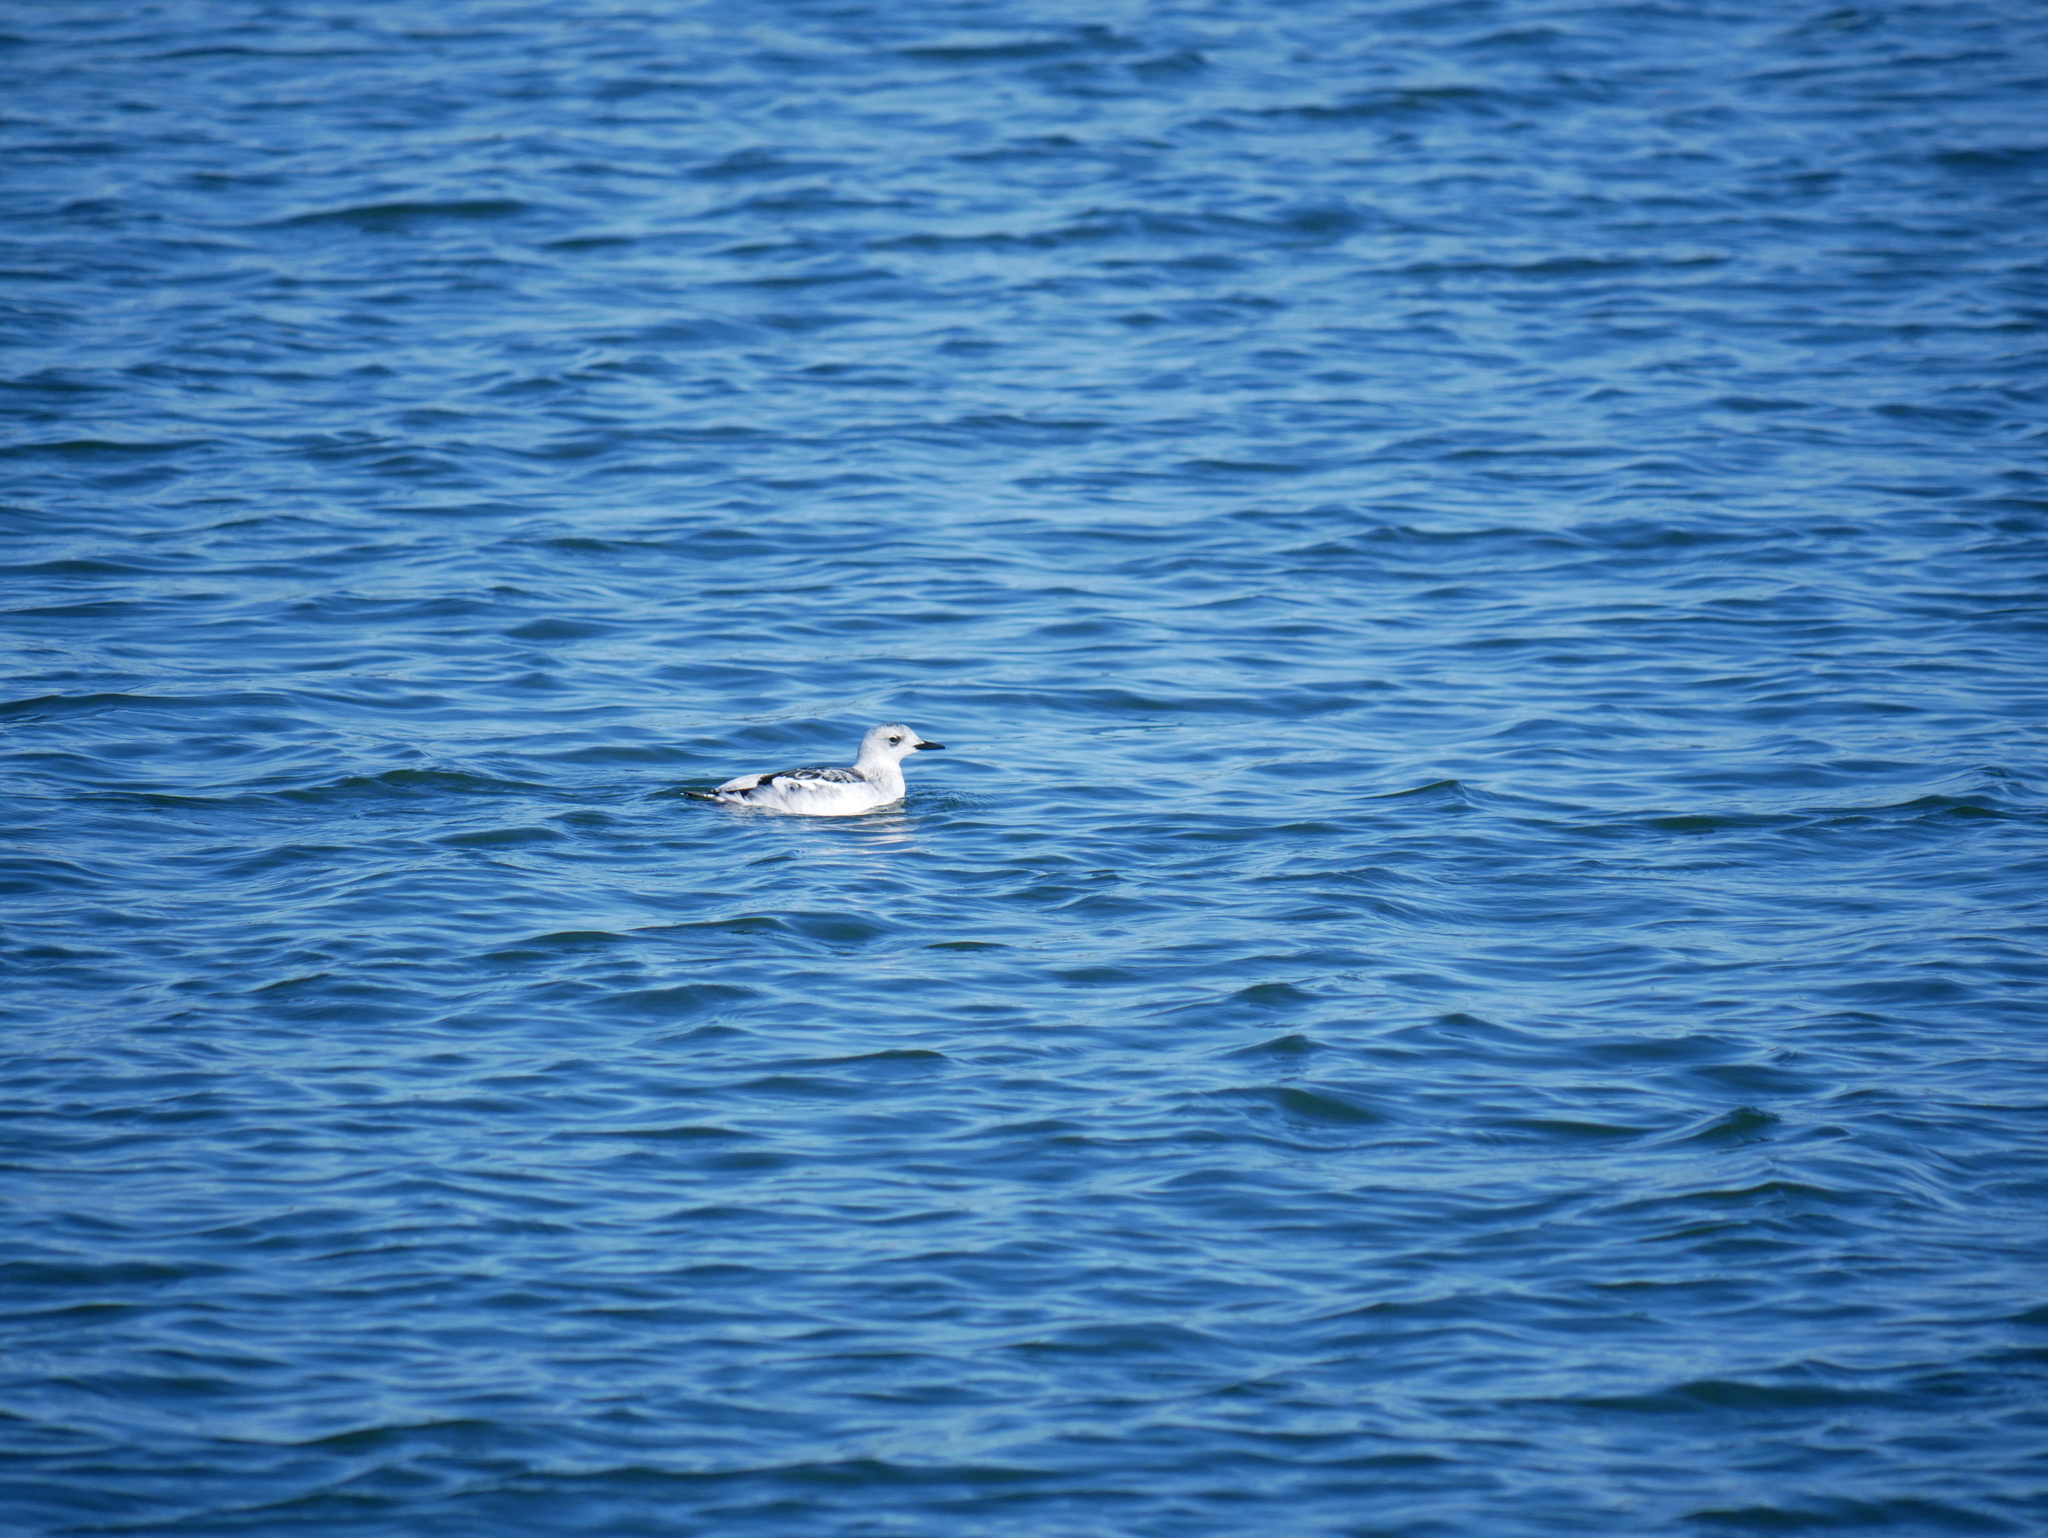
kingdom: Animalia
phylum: Chordata
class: Aves
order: Charadriiformes
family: Alcidae
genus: Cepphus
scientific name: Cepphus grylle
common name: Black guillemot
